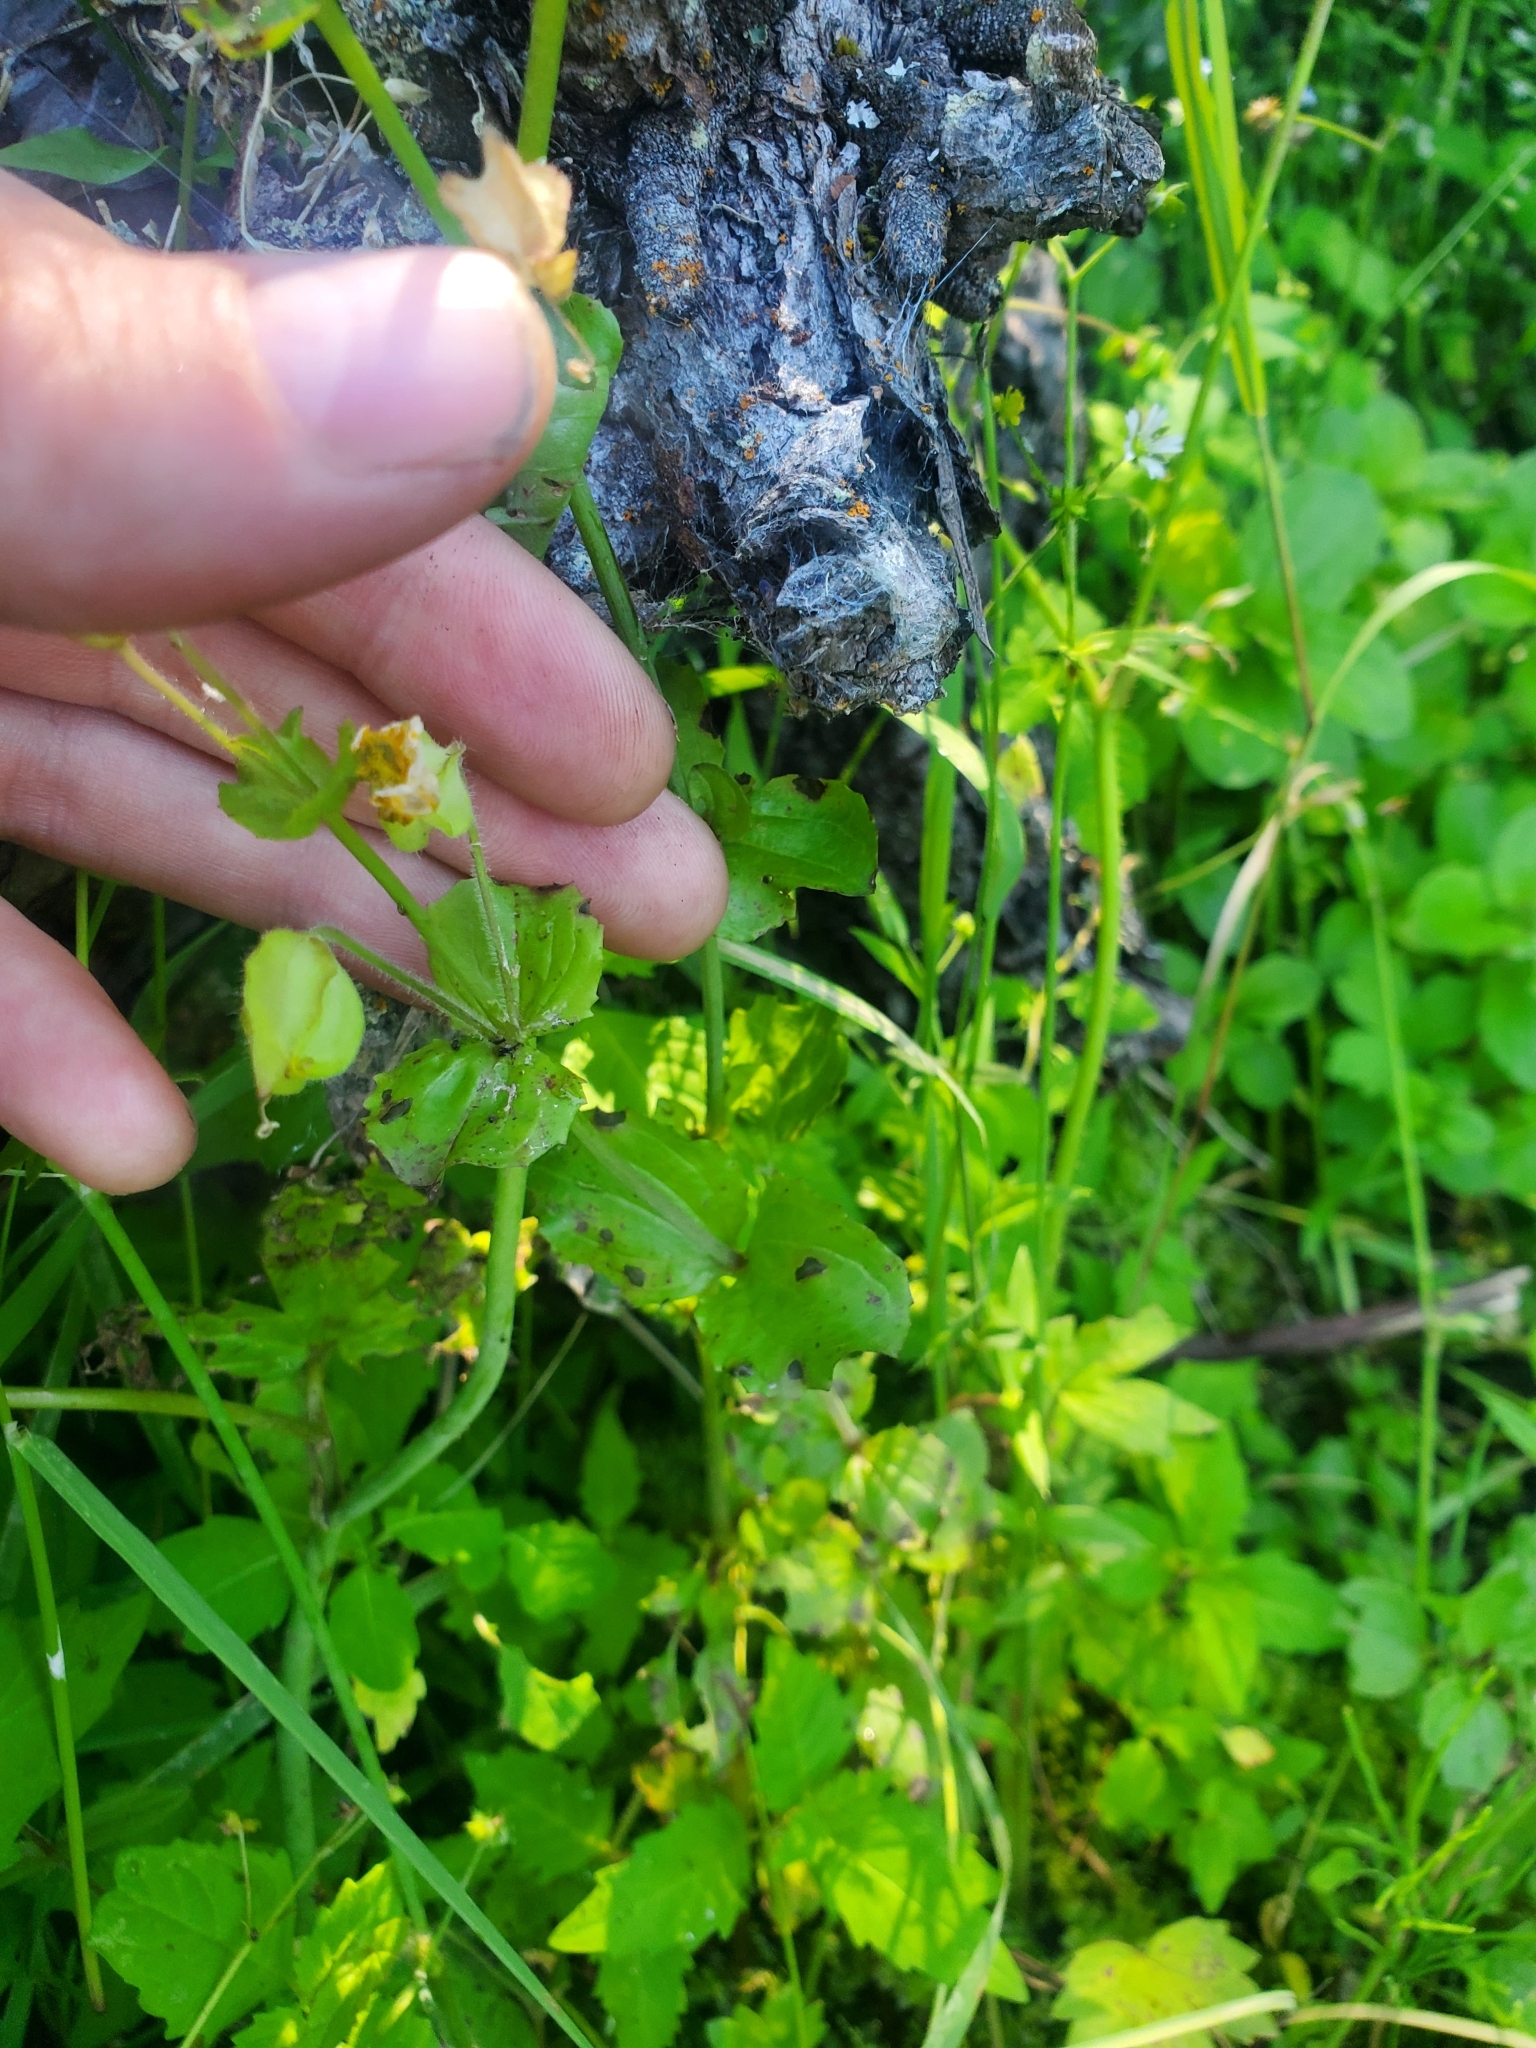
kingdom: Plantae
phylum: Tracheophyta
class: Magnoliopsida
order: Lamiales
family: Phrymaceae
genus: Erythranthe
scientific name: Erythranthe guttata
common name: Monkeyflower
